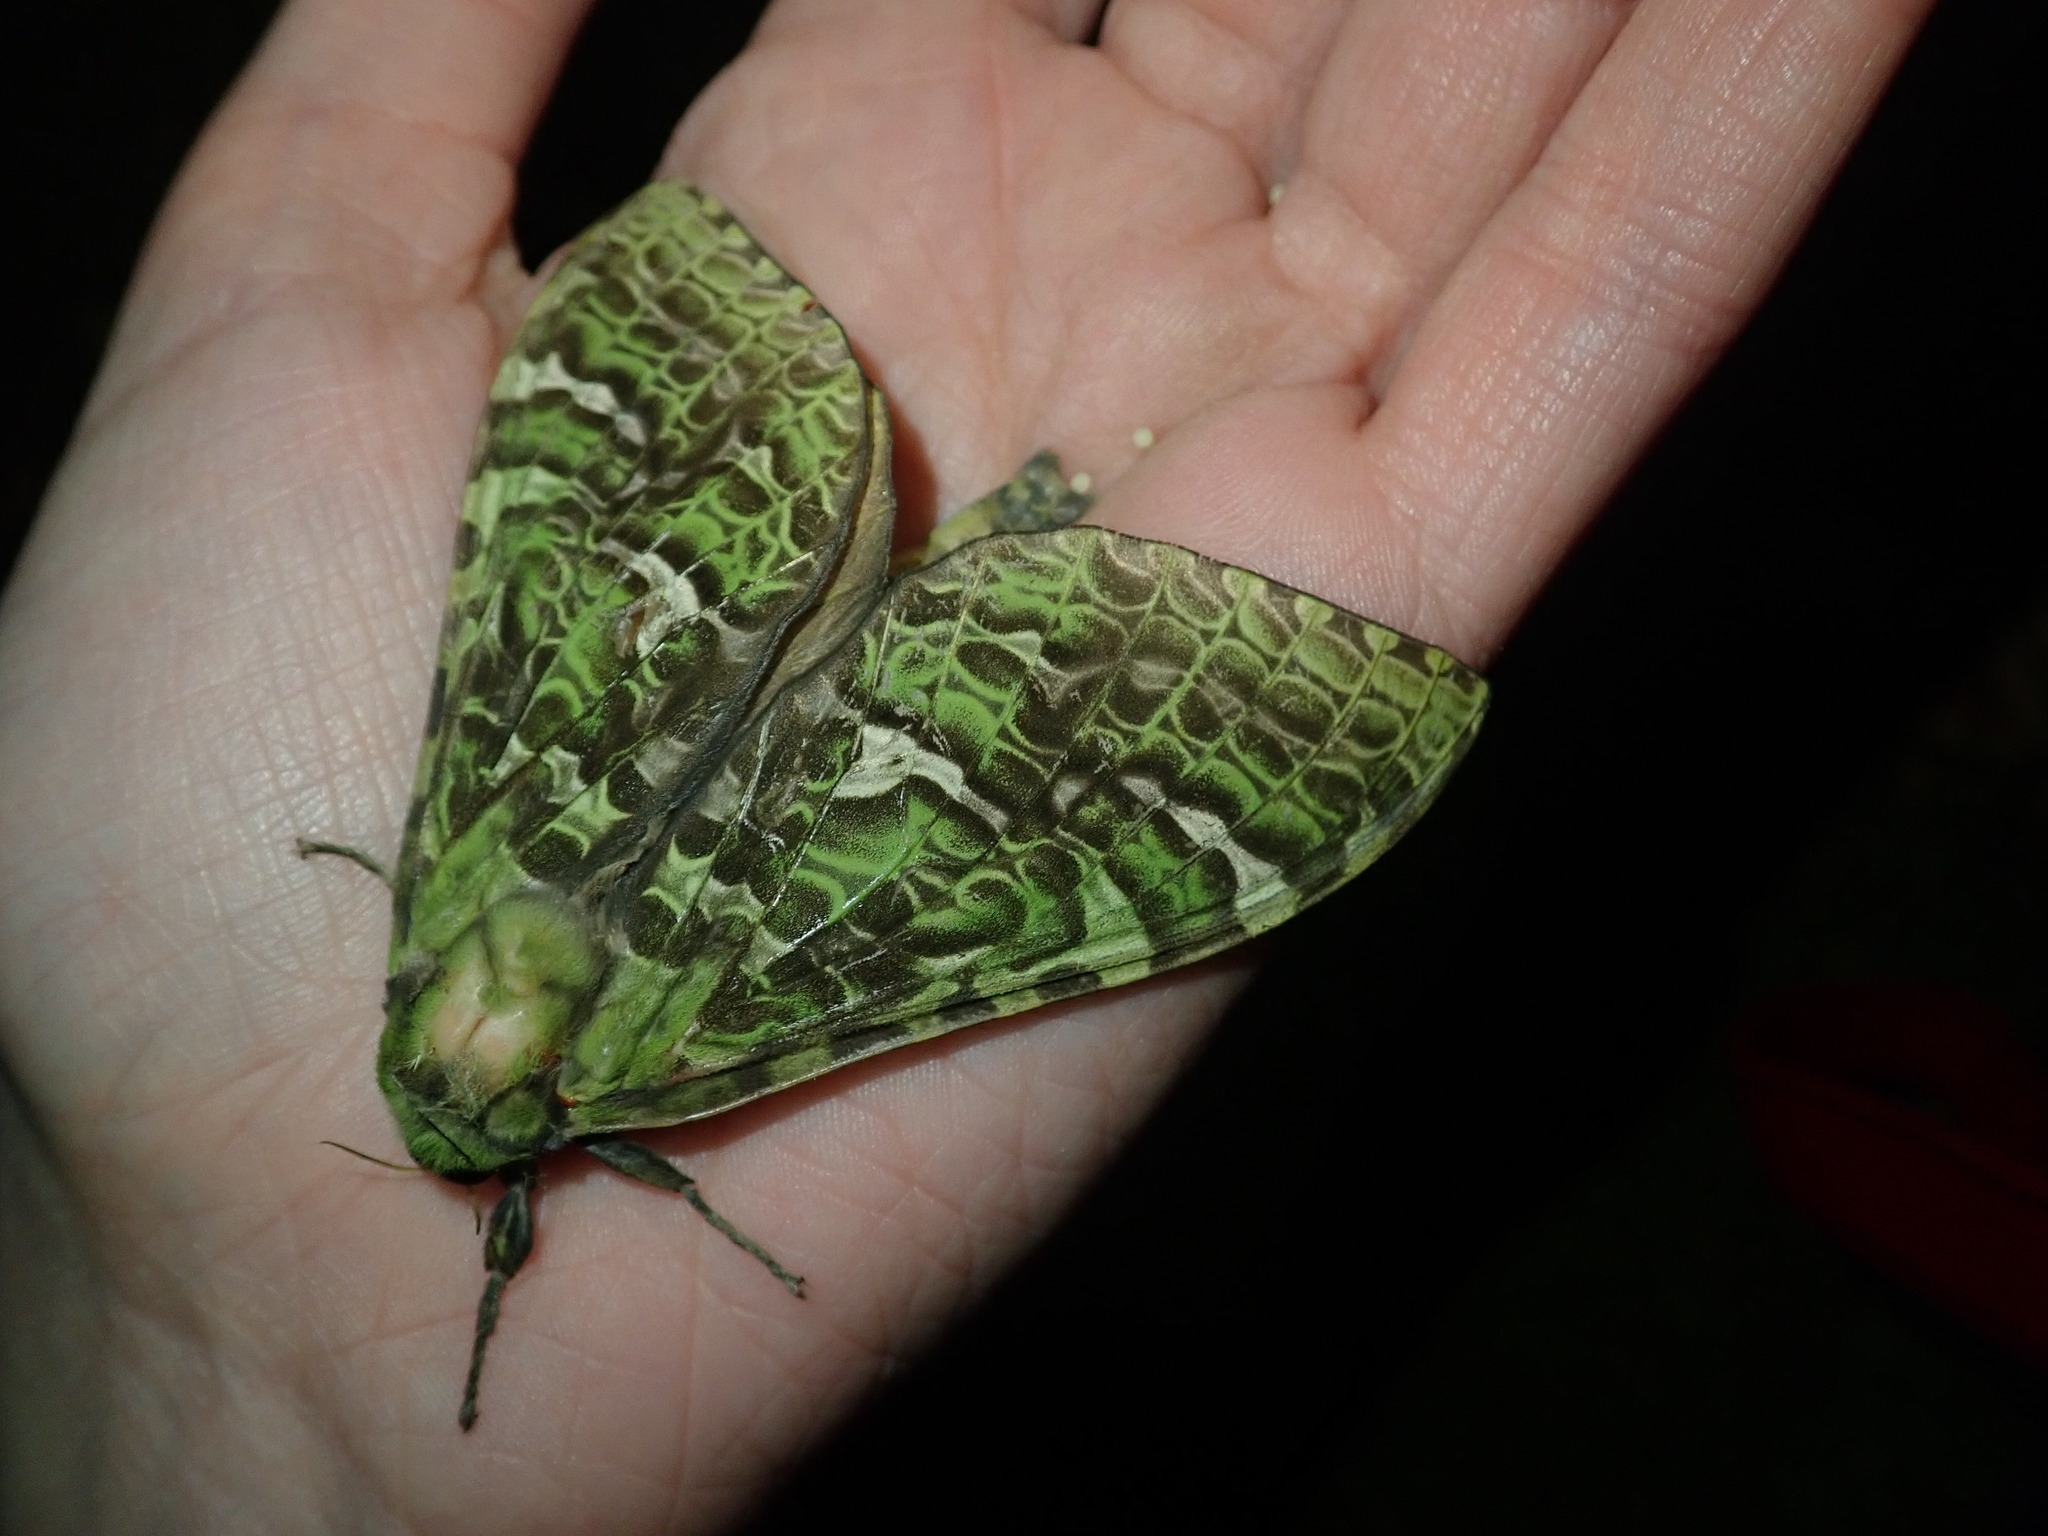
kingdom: Animalia
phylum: Arthropoda
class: Insecta
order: Lepidoptera
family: Hepialidae
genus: Aenetus
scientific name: Aenetus virescens
